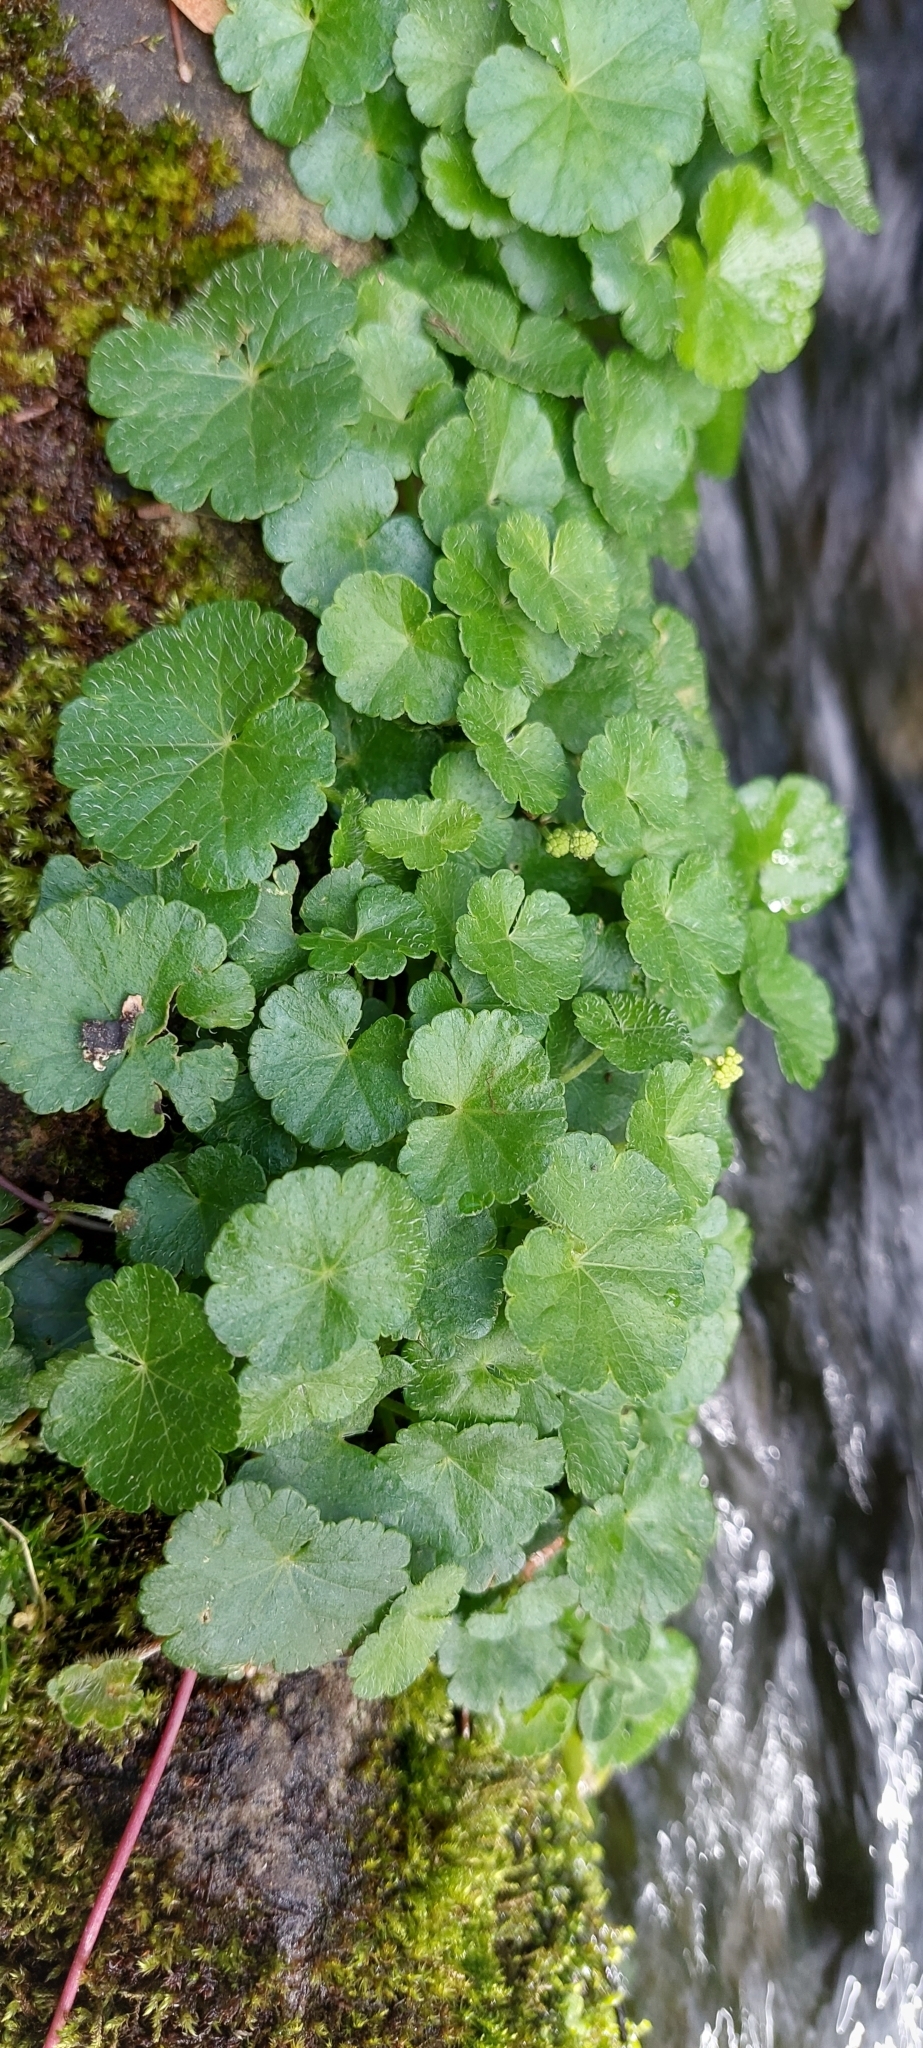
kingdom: Plantae
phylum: Tracheophyta
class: Magnoliopsida
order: Apiales
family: Araliaceae
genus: Hydrocotyle
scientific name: Hydrocotyle bonplandii
